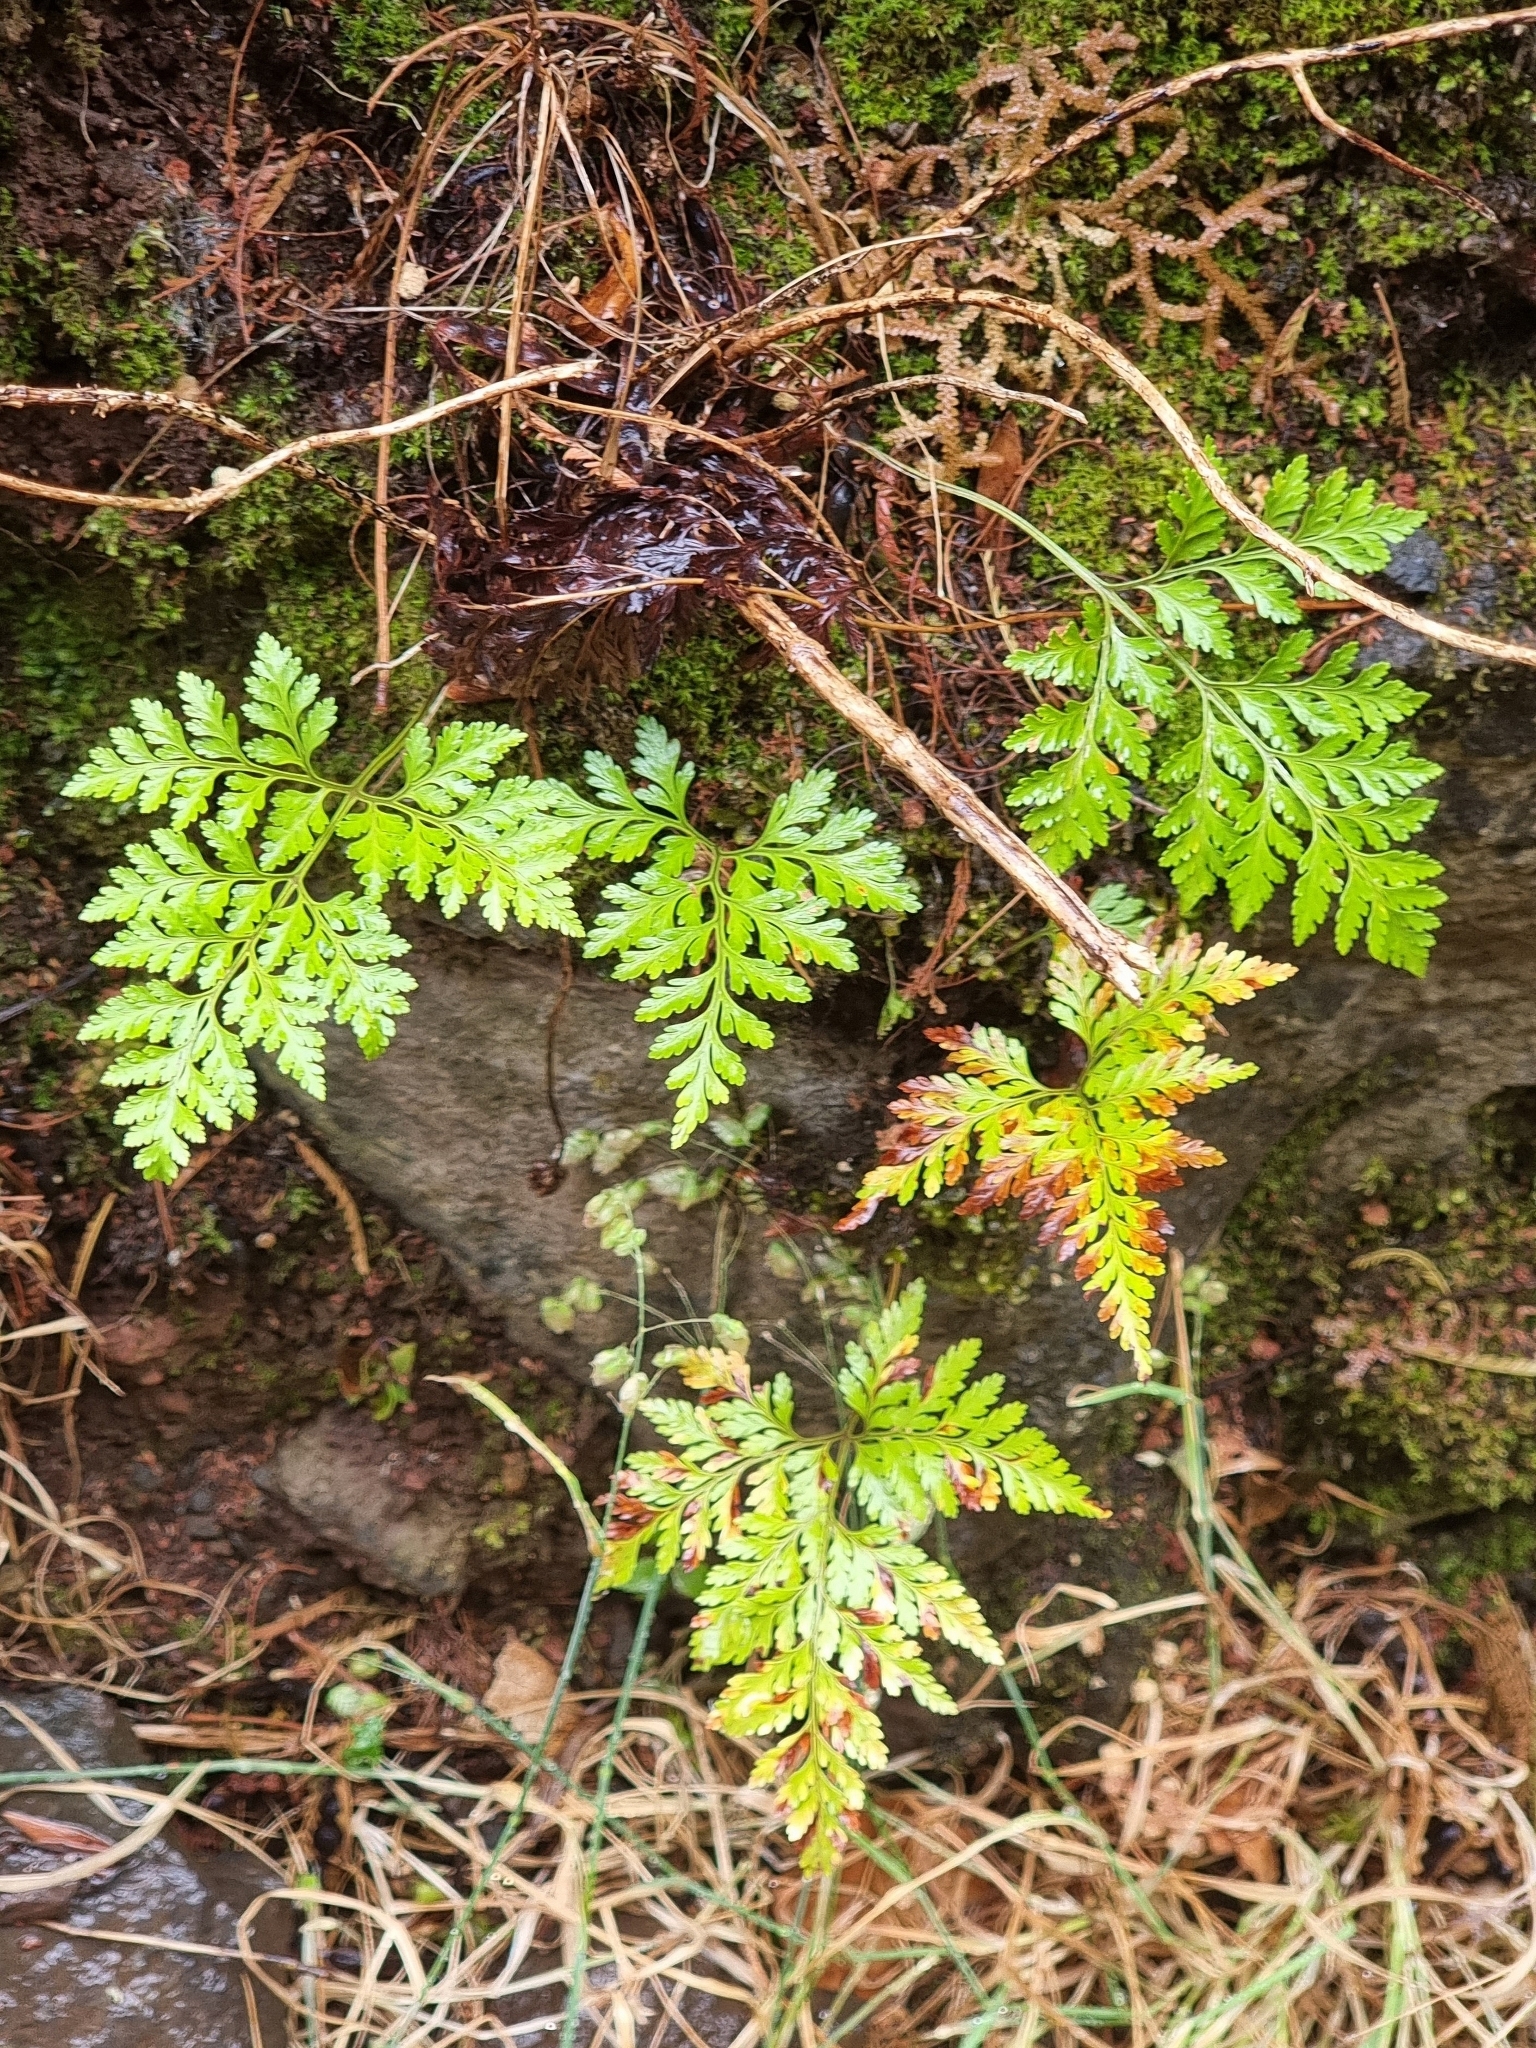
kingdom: Plantae
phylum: Tracheophyta
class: Polypodiopsida
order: Polypodiales
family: Davalliaceae
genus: Davallia
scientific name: Davallia canariensis
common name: Hare's-foot fern
